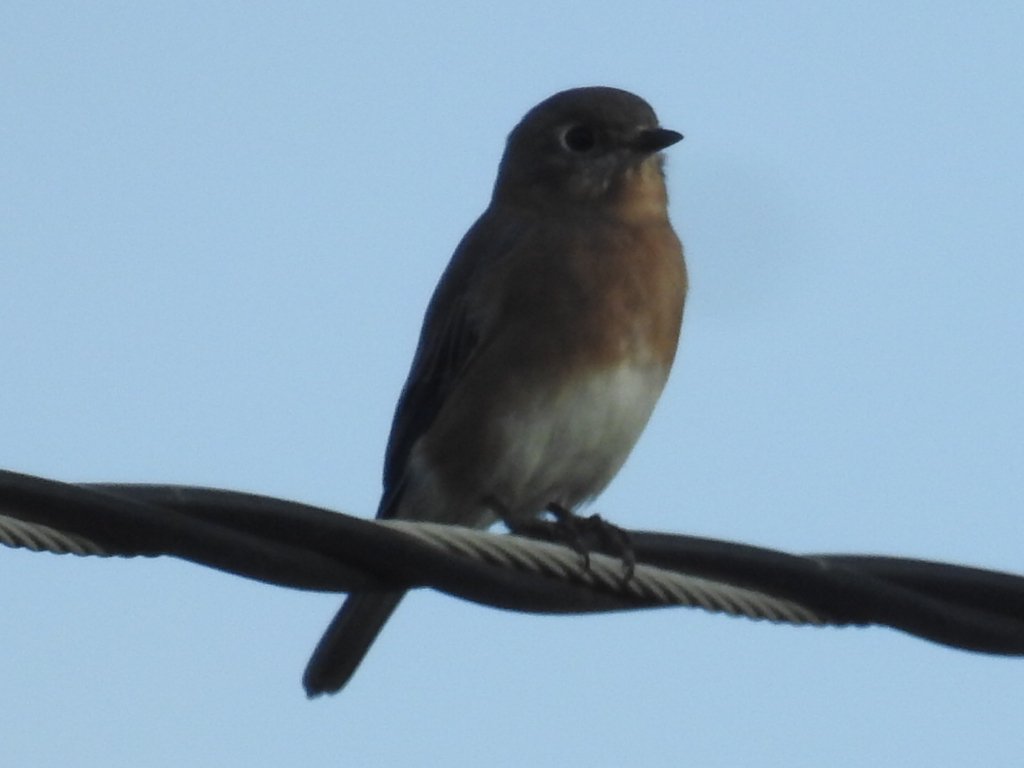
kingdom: Animalia
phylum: Chordata
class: Aves
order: Passeriformes
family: Turdidae
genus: Sialia
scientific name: Sialia sialis
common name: Eastern bluebird
